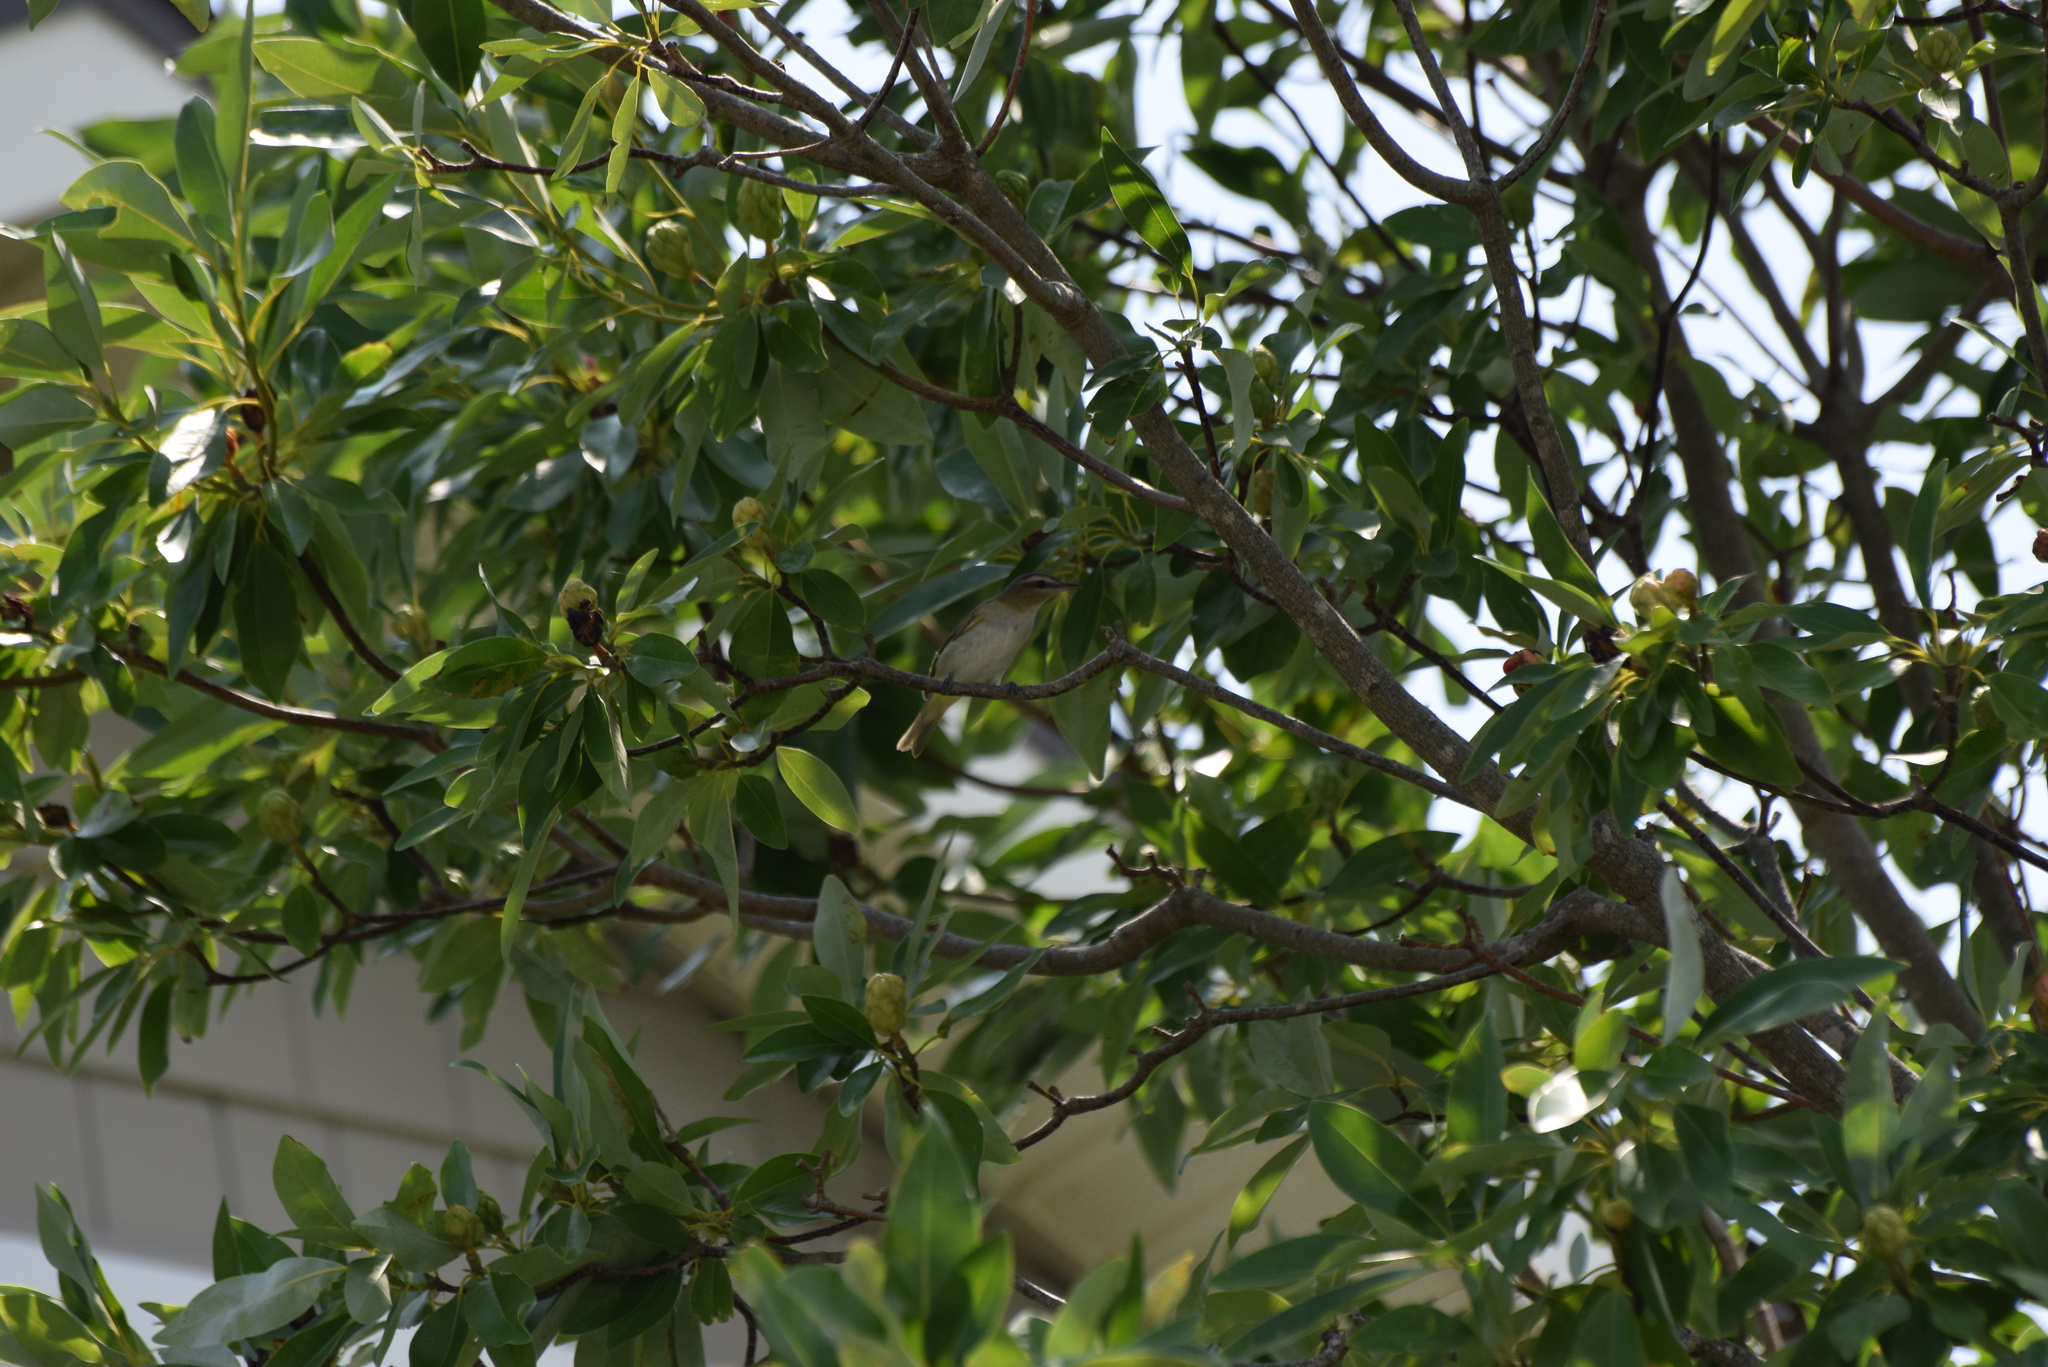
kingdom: Animalia
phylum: Chordata
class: Aves
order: Passeriformes
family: Vireonidae
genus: Vireo
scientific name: Vireo olivaceus
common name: Red-eyed vireo
